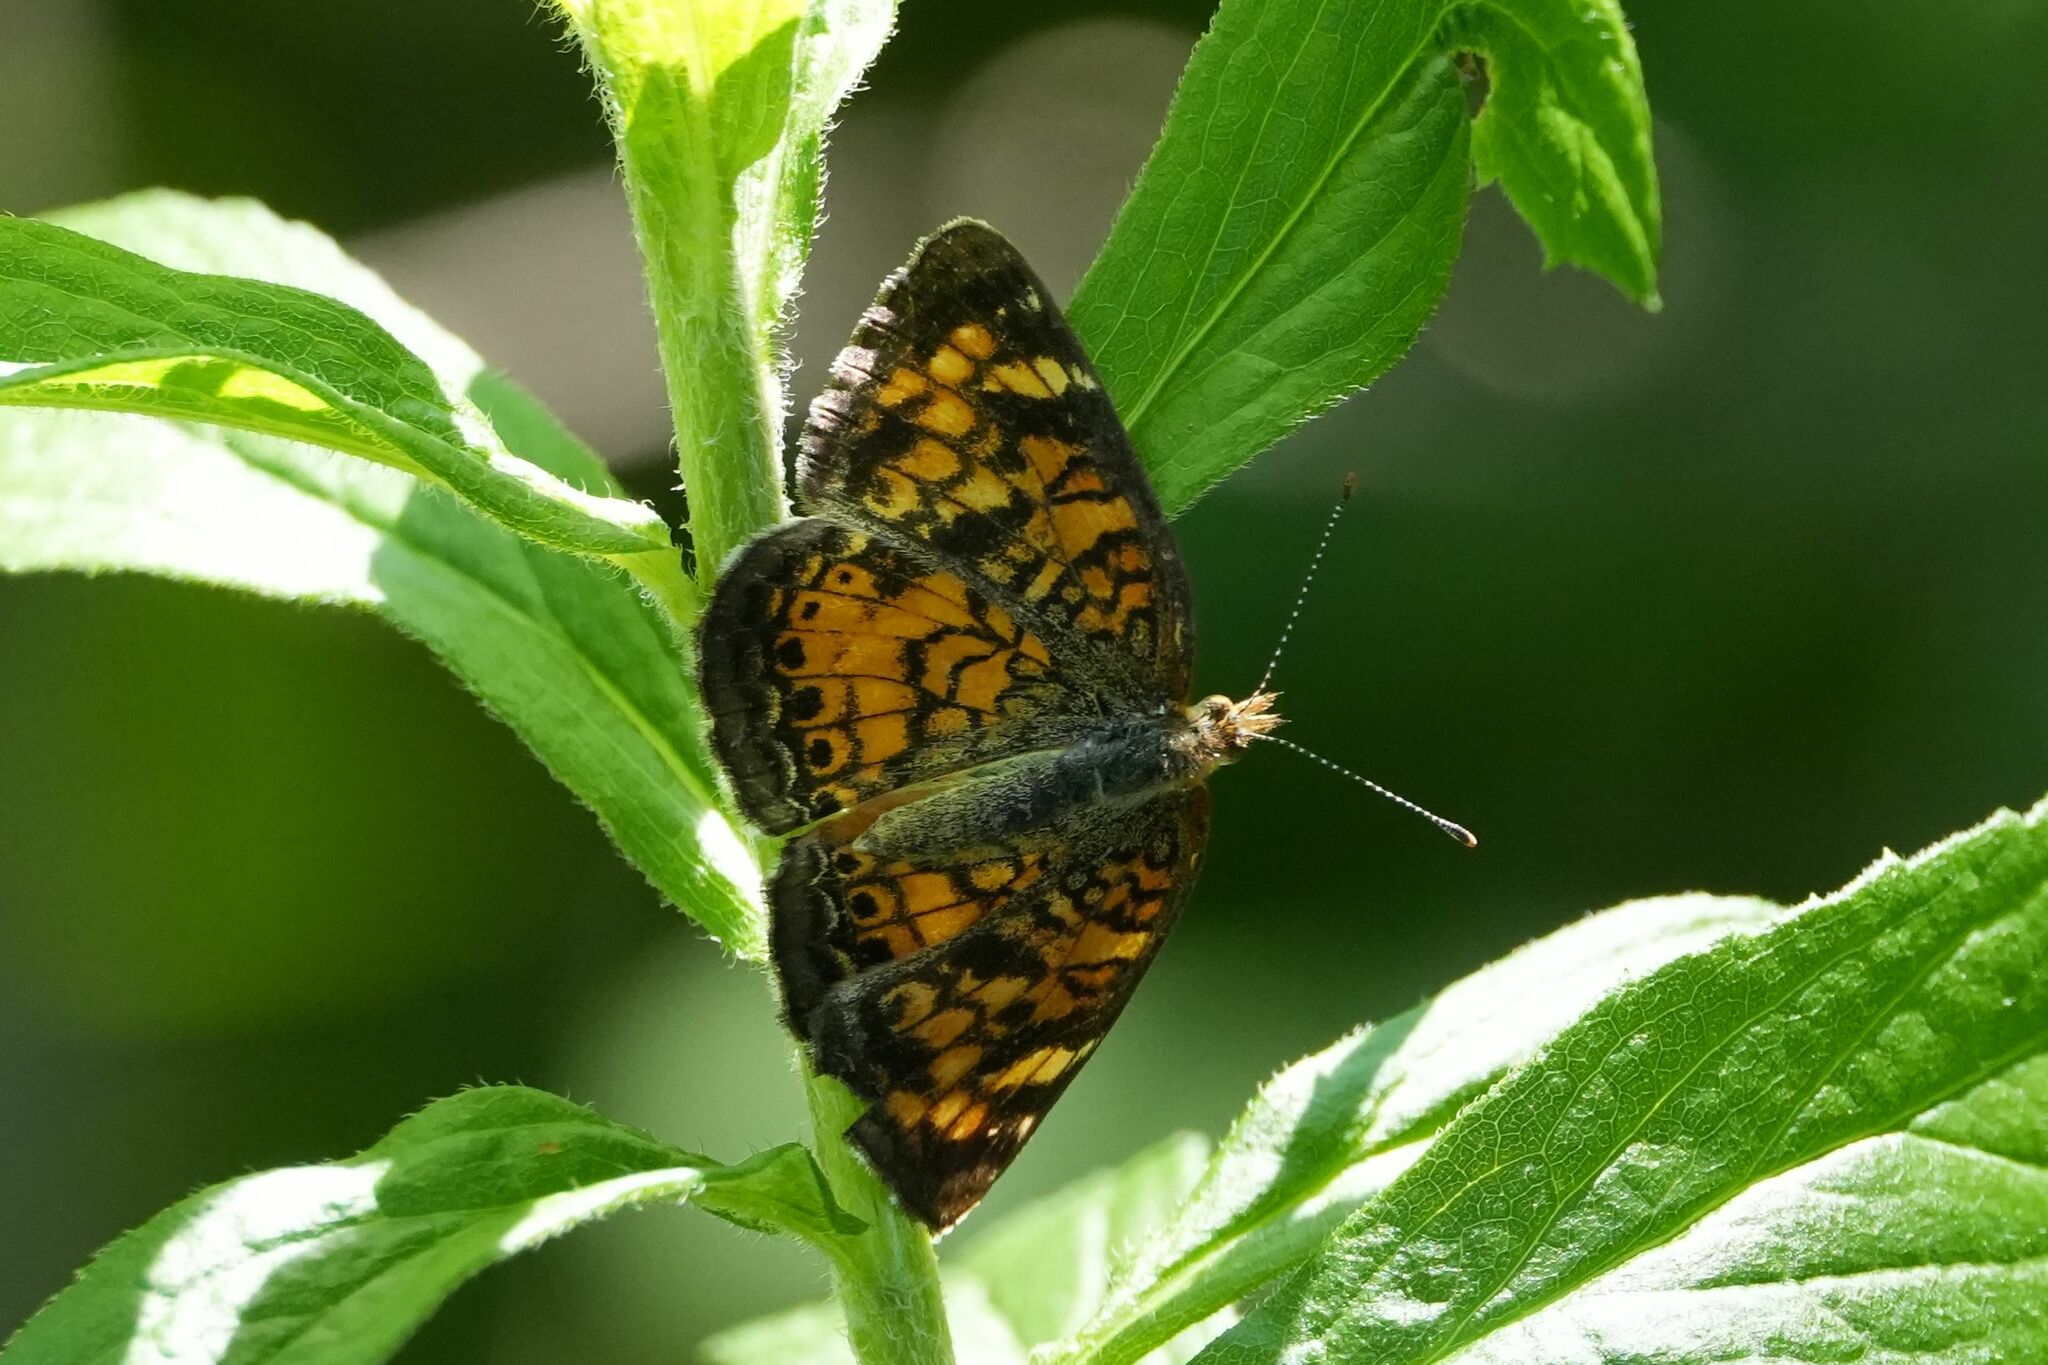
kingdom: Animalia
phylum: Arthropoda
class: Insecta
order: Lepidoptera
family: Nymphalidae
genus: Phyciodes
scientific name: Phyciodes tharos
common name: Pearl crescent
